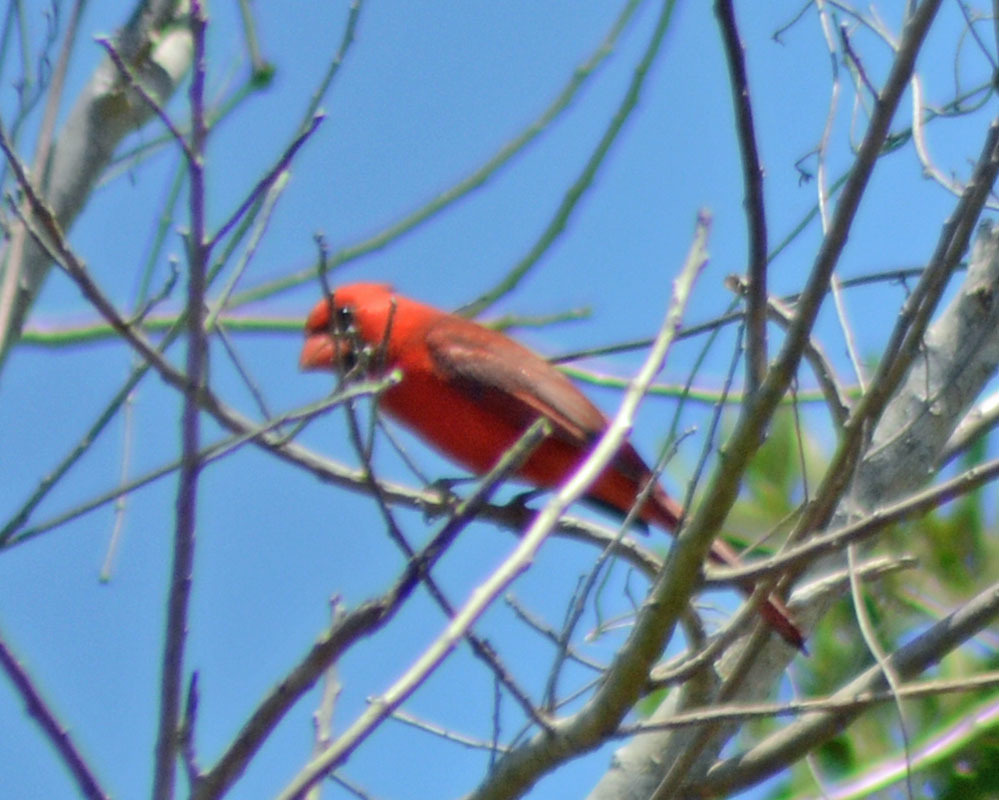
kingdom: Animalia
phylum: Chordata
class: Aves
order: Passeriformes
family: Cardinalidae
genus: Cardinalis
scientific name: Cardinalis cardinalis
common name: Northern cardinal
